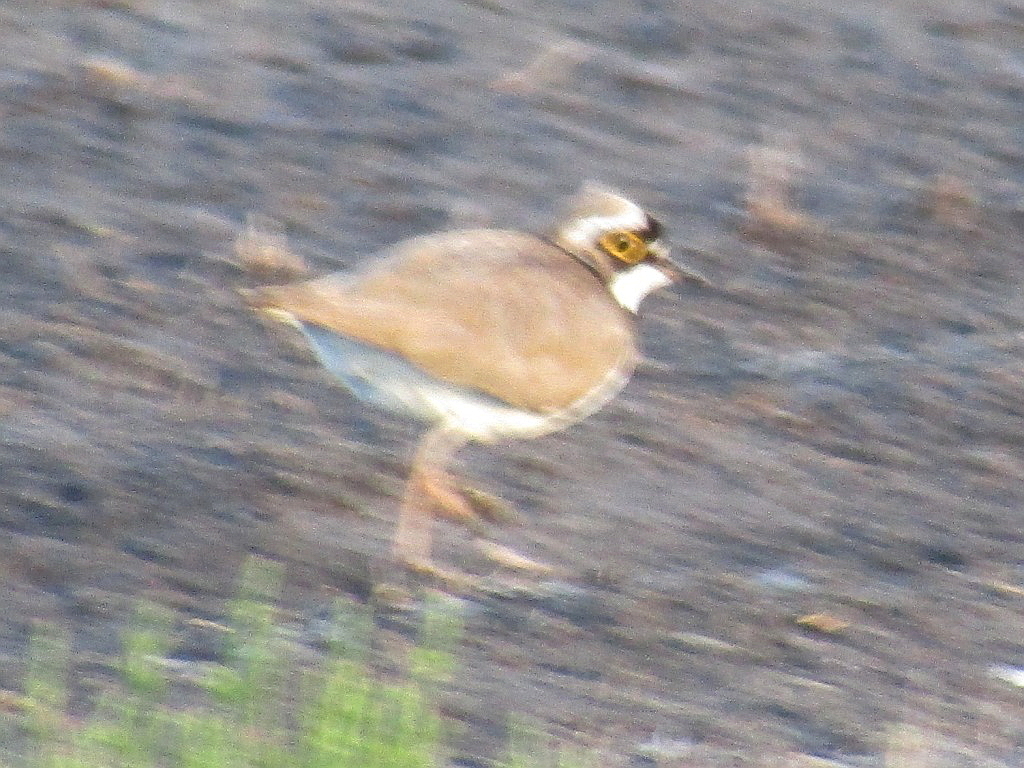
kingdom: Animalia
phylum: Chordata
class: Aves
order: Charadriiformes
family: Charadriidae
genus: Charadrius
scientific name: Charadrius dubius
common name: Little ringed plover
